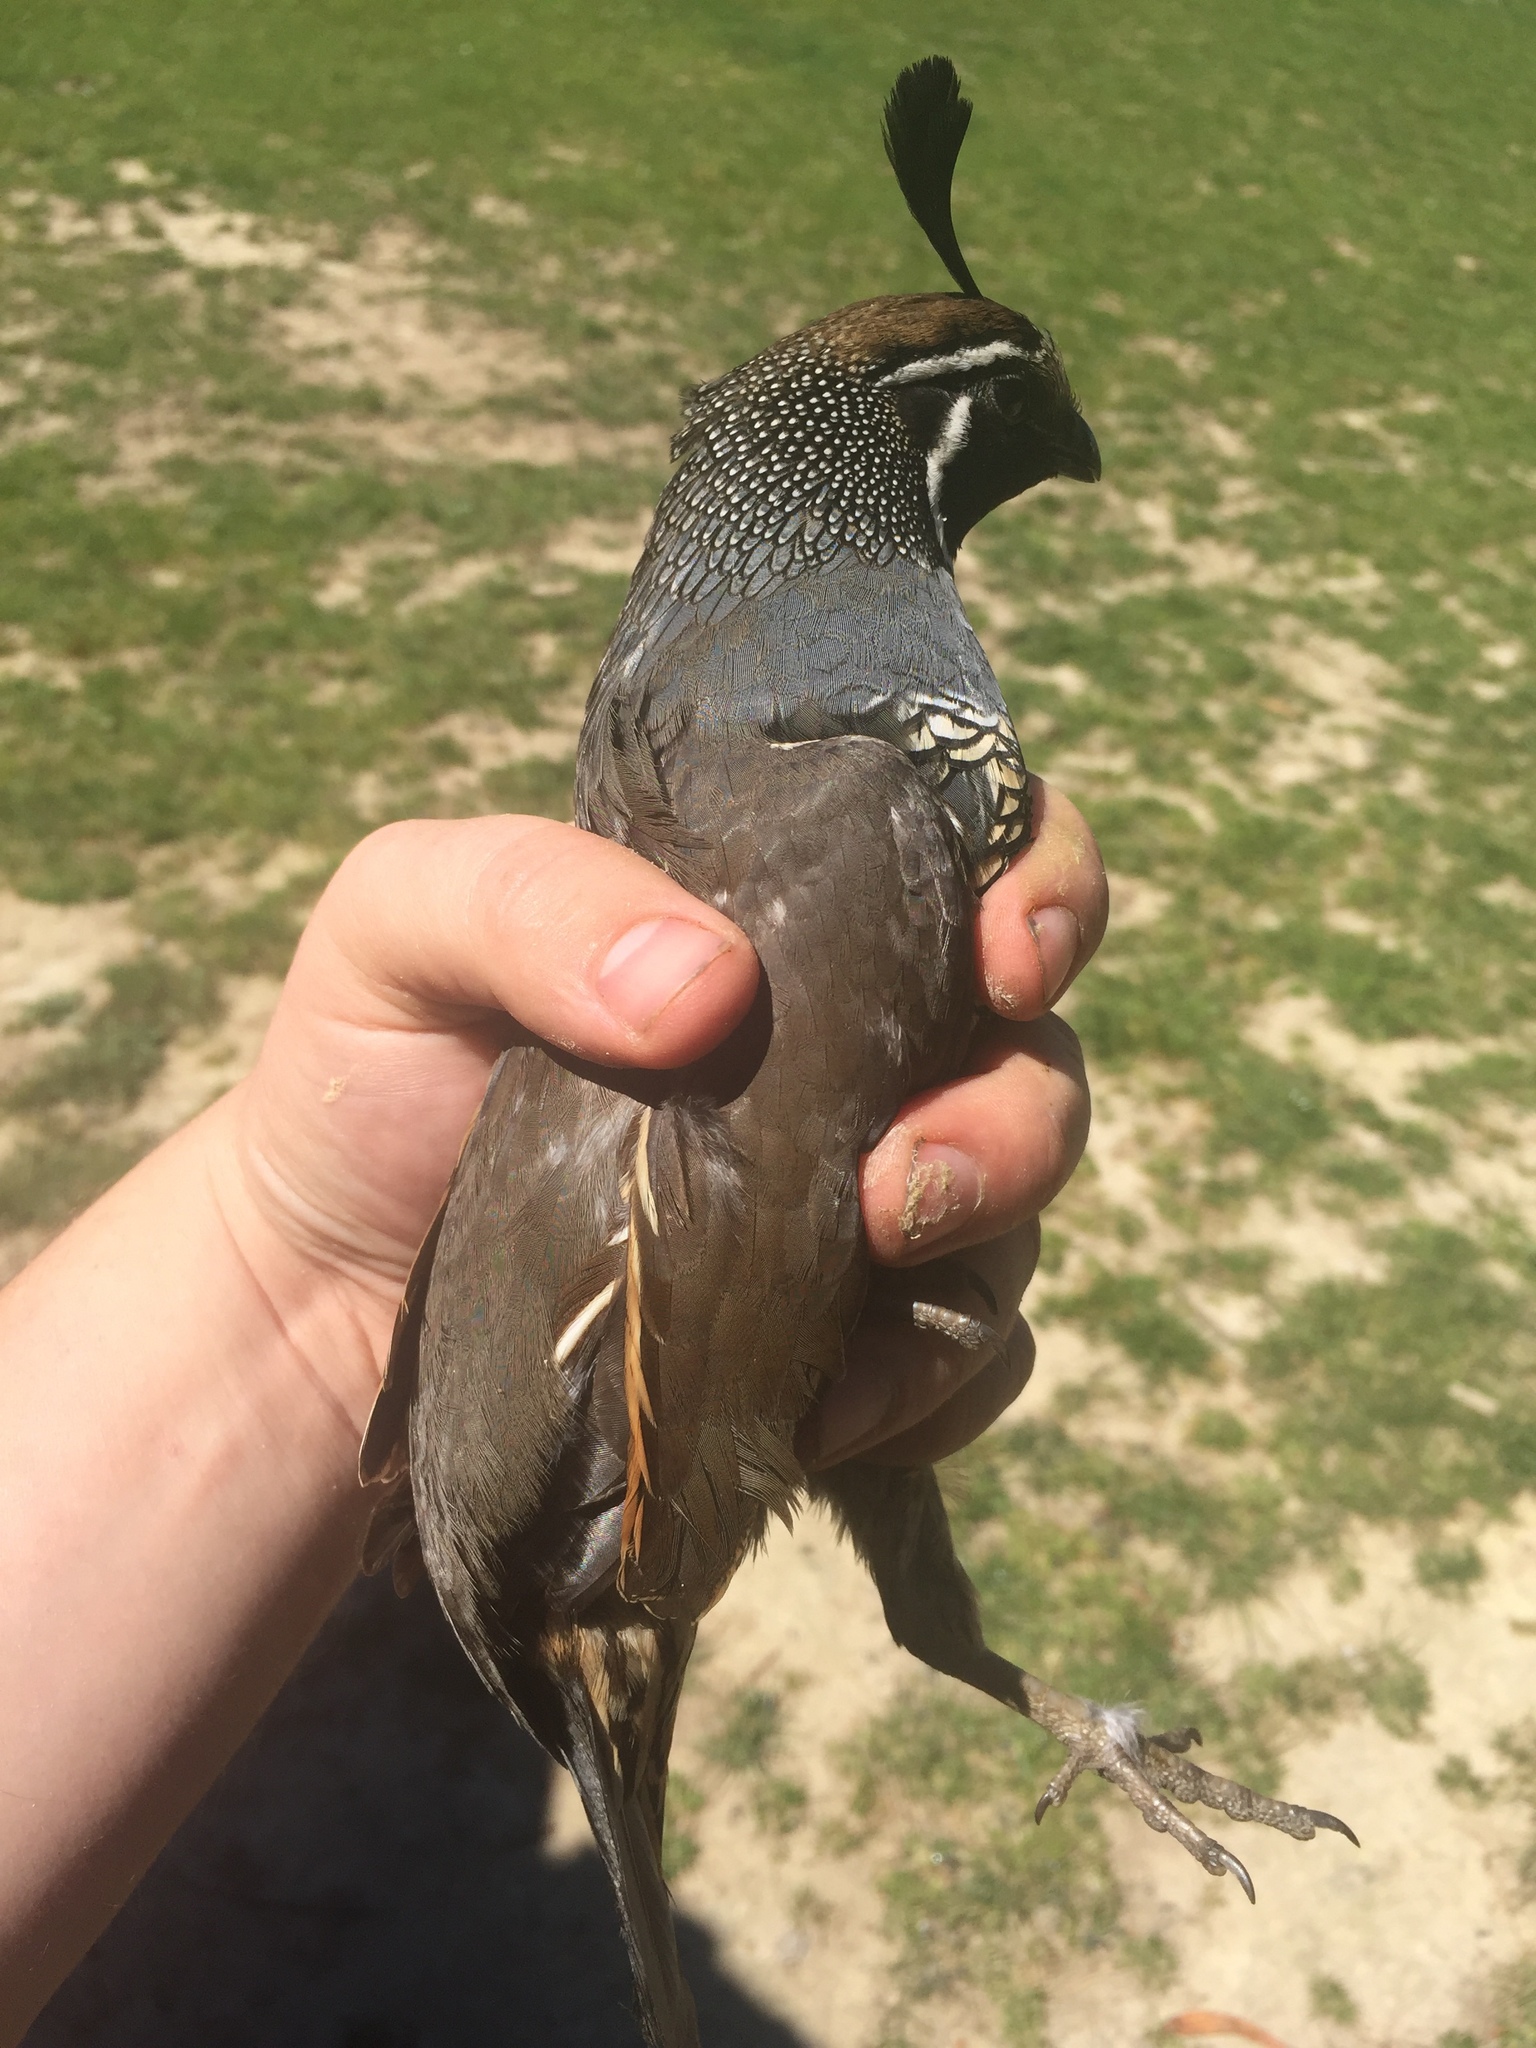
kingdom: Animalia
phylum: Chordata
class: Aves
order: Galliformes
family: Odontophoridae
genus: Callipepla
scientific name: Callipepla californica
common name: California quail
